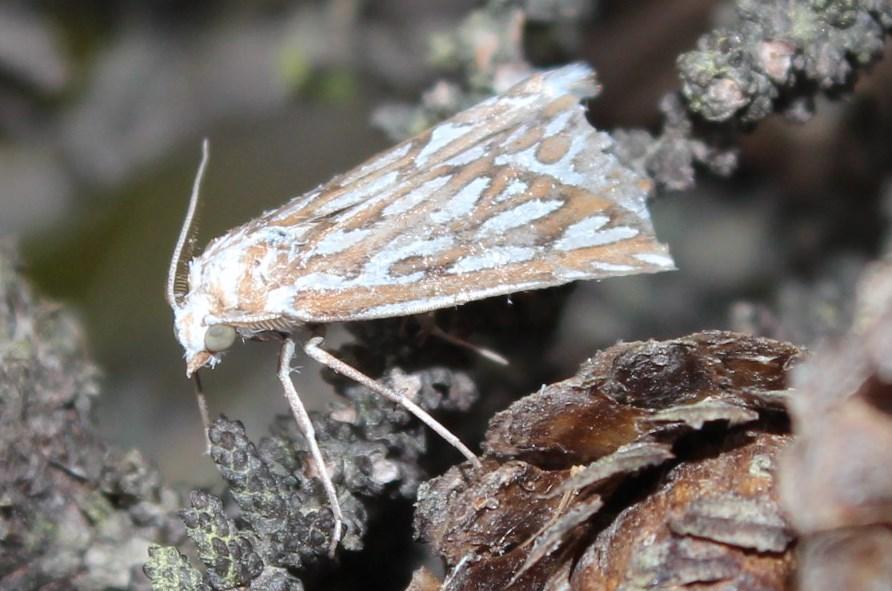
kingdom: Animalia
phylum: Arthropoda
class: Insecta
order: Lepidoptera
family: Geometridae
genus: Argyrophora
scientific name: Argyrophora trofonia
